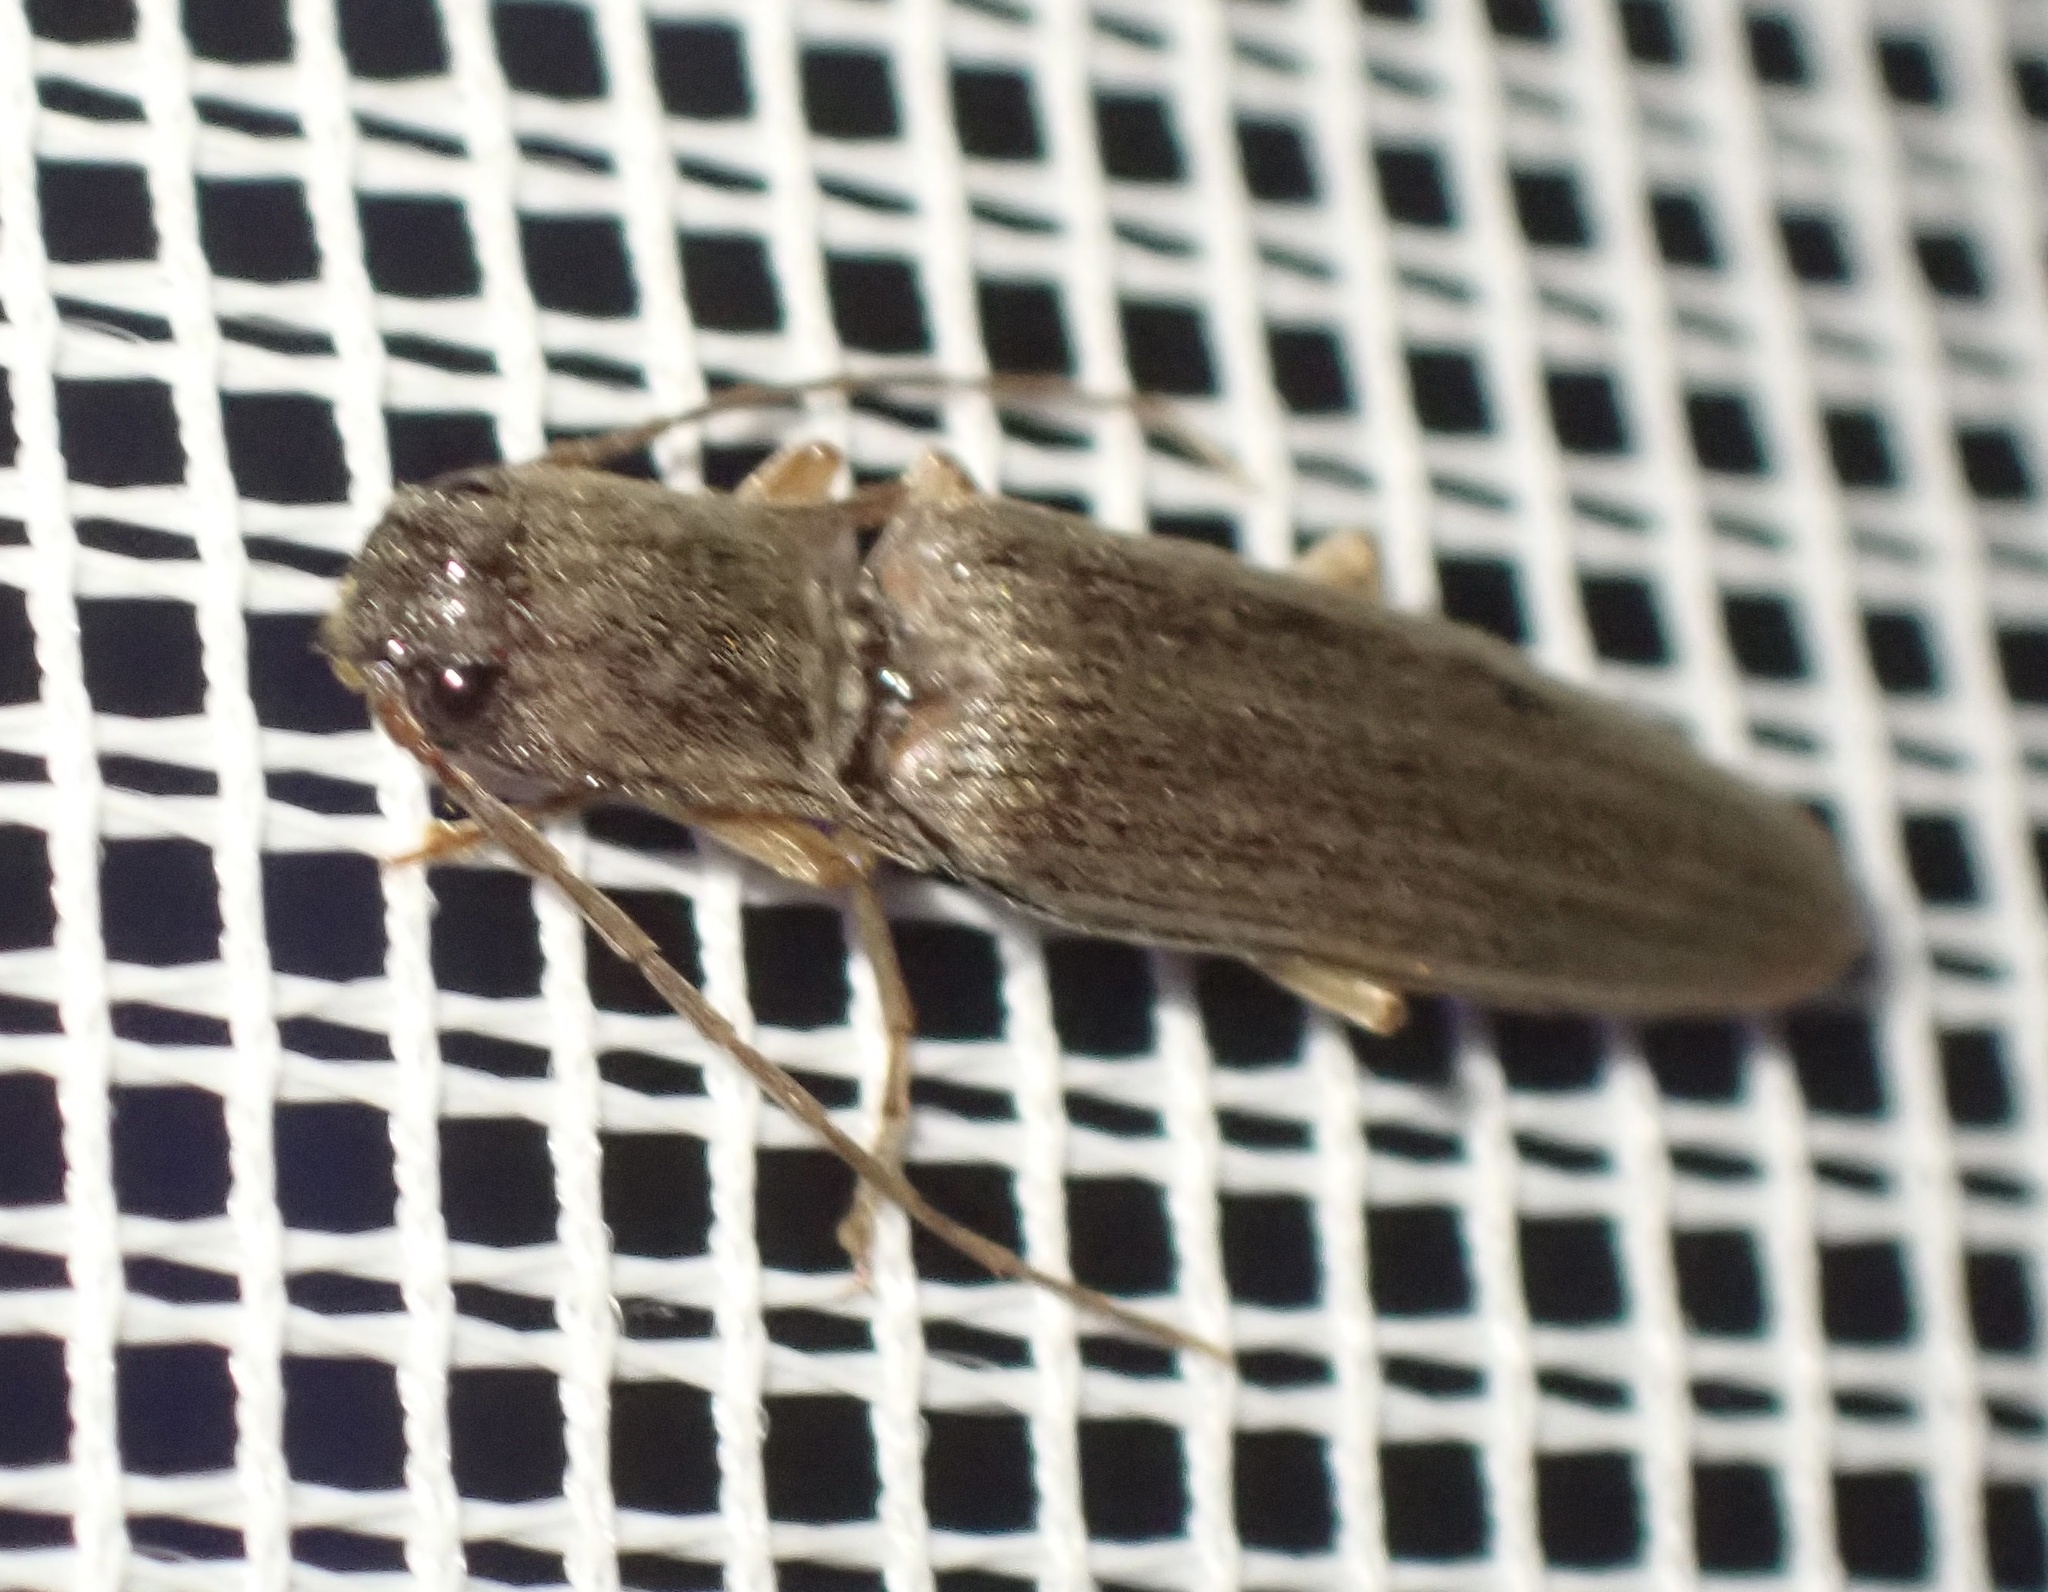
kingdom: Animalia
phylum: Arthropoda
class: Insecta
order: Coleoptera
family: Elateridae
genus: Monocrepidius
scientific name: Monocrepidius
